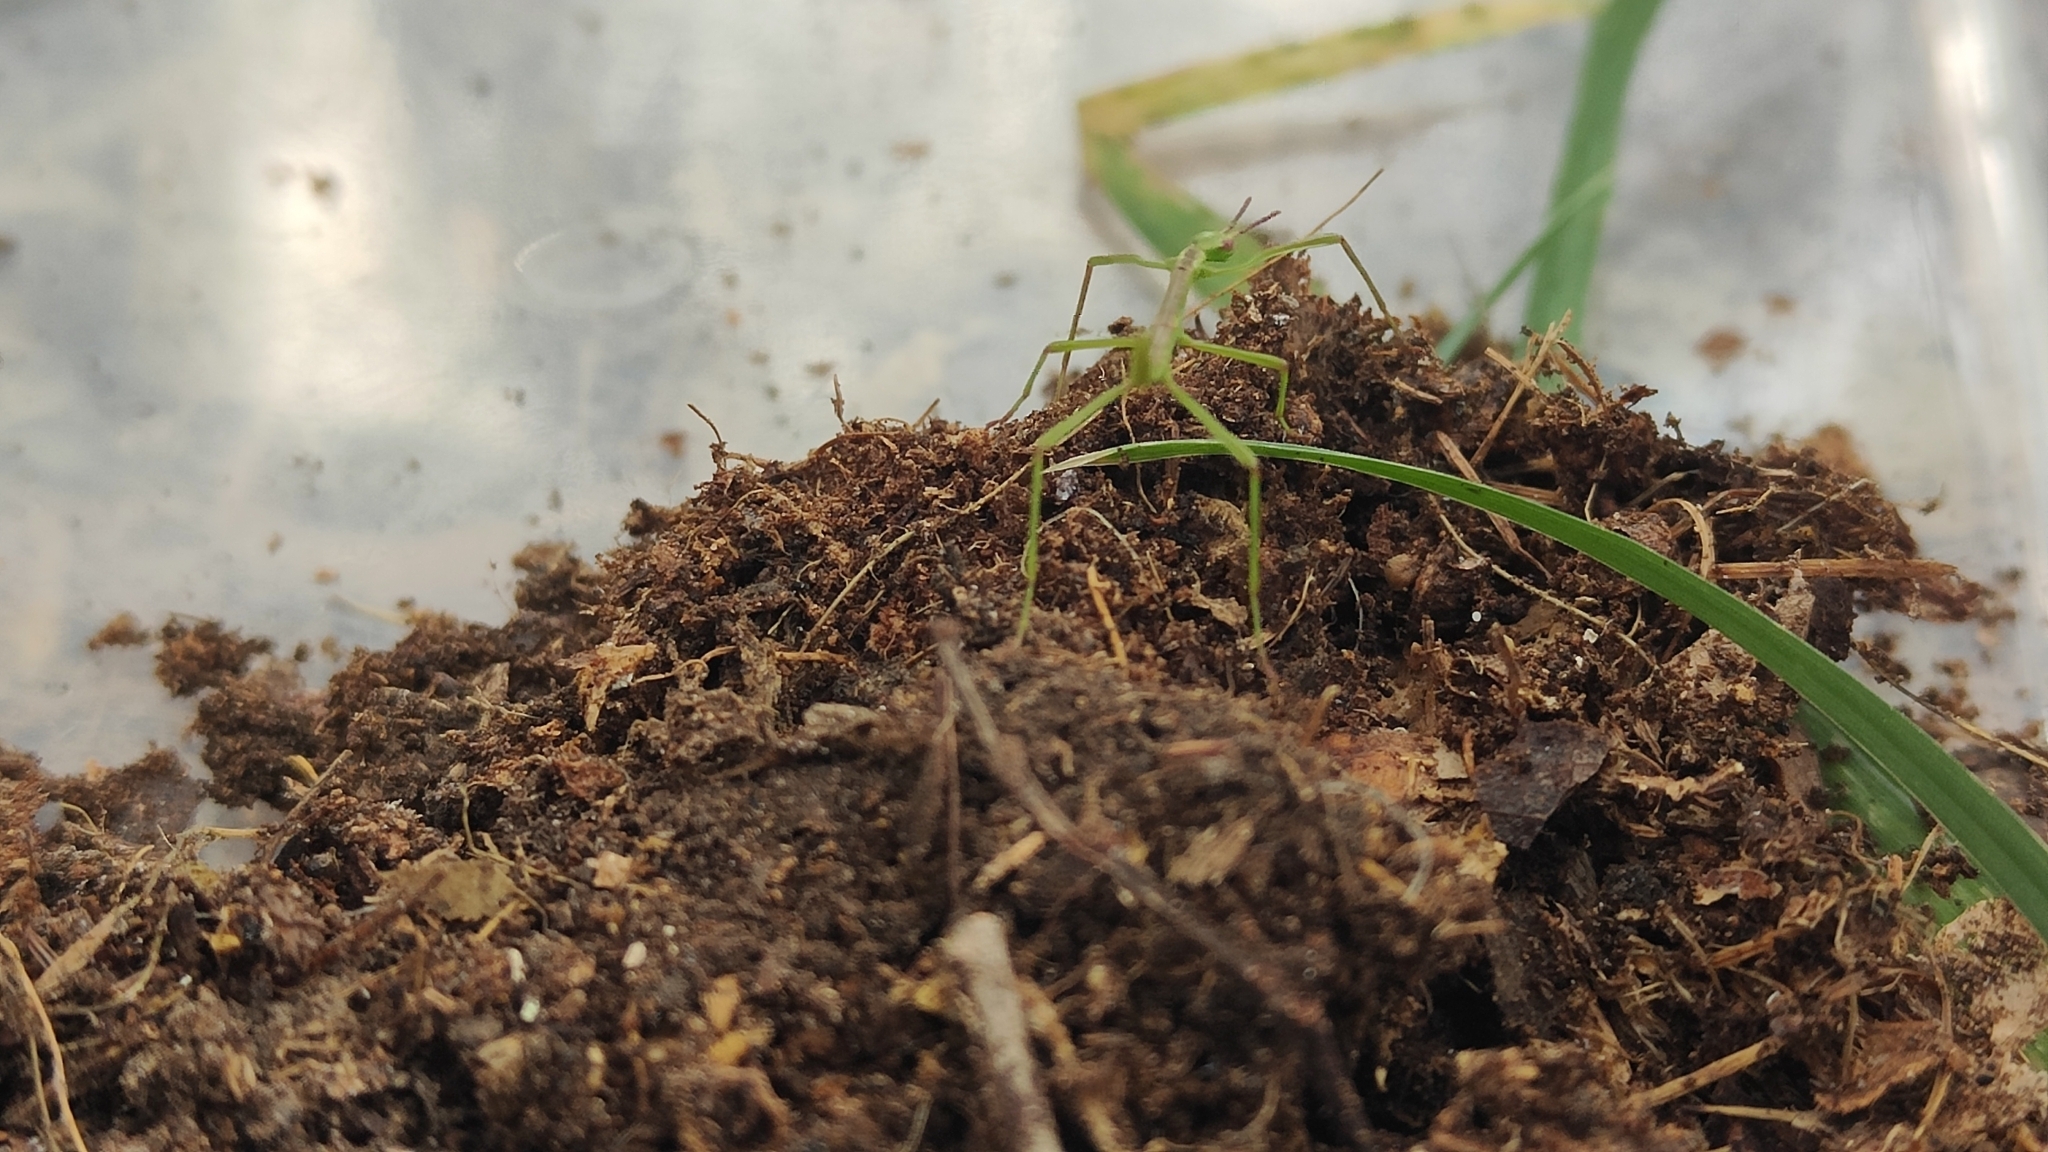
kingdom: Animalia
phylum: Arthropoda
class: Insecta
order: Phasmida
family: Phasmatidae
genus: Clitarchus
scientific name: Clitarchus hookeri
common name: Smooth stick insect
